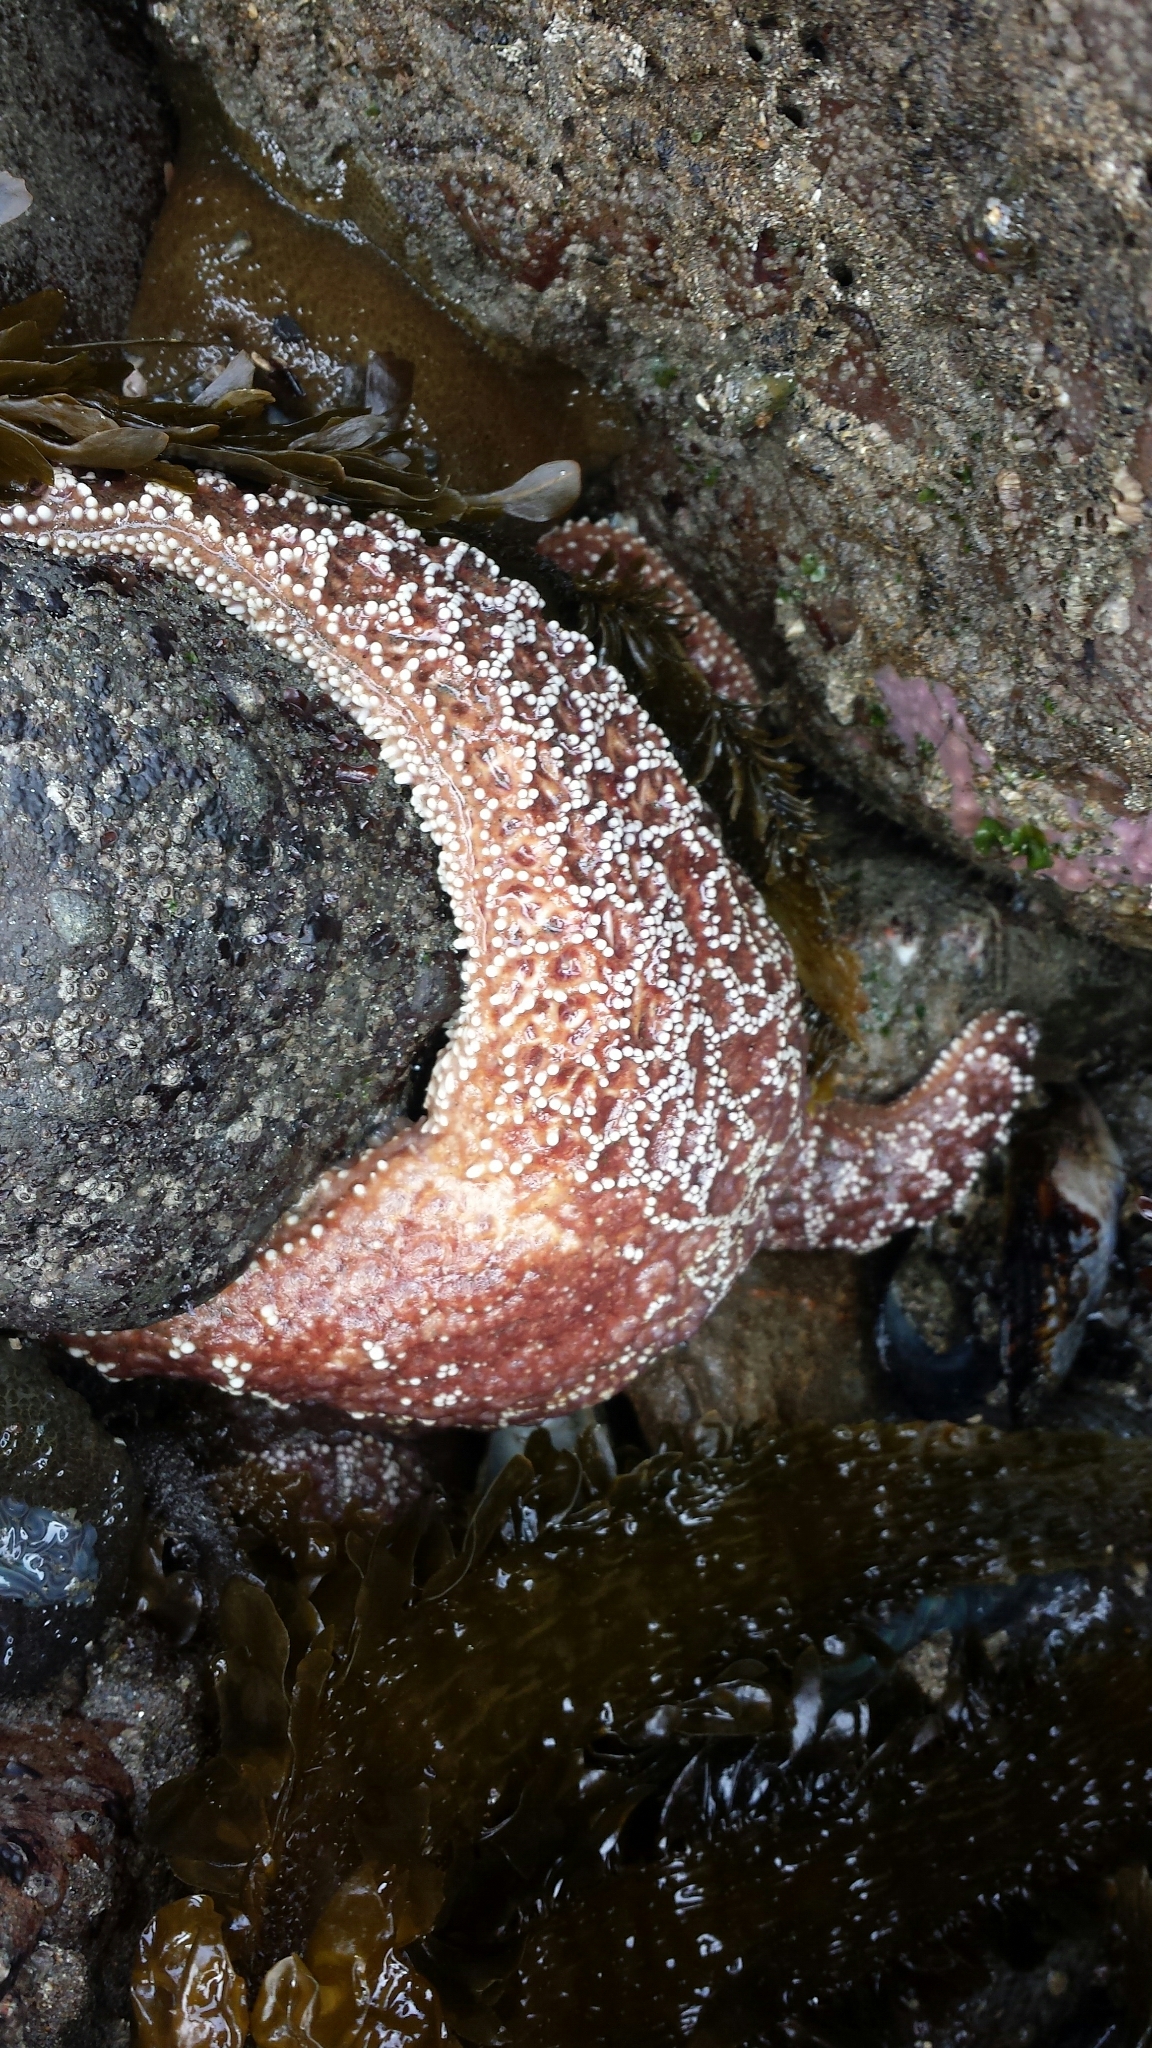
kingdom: Animalia
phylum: Echinodermata
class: Asteroidea
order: Forcipulatida
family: Asteriidae
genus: Pisaster
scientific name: Pisaster ochraceus
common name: Ochre stars
